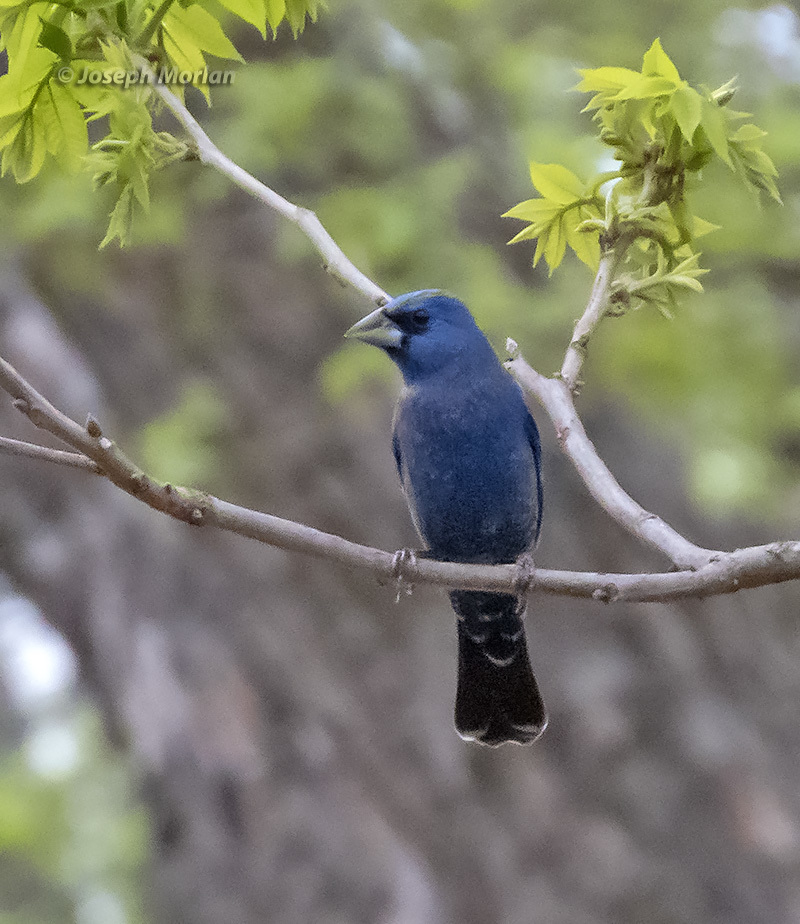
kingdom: Animalia
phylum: Chordata
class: Aves
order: Passeriformes
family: Cardinalidae
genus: Passerina
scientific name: Passerina caerulea
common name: Blue grosbeak
